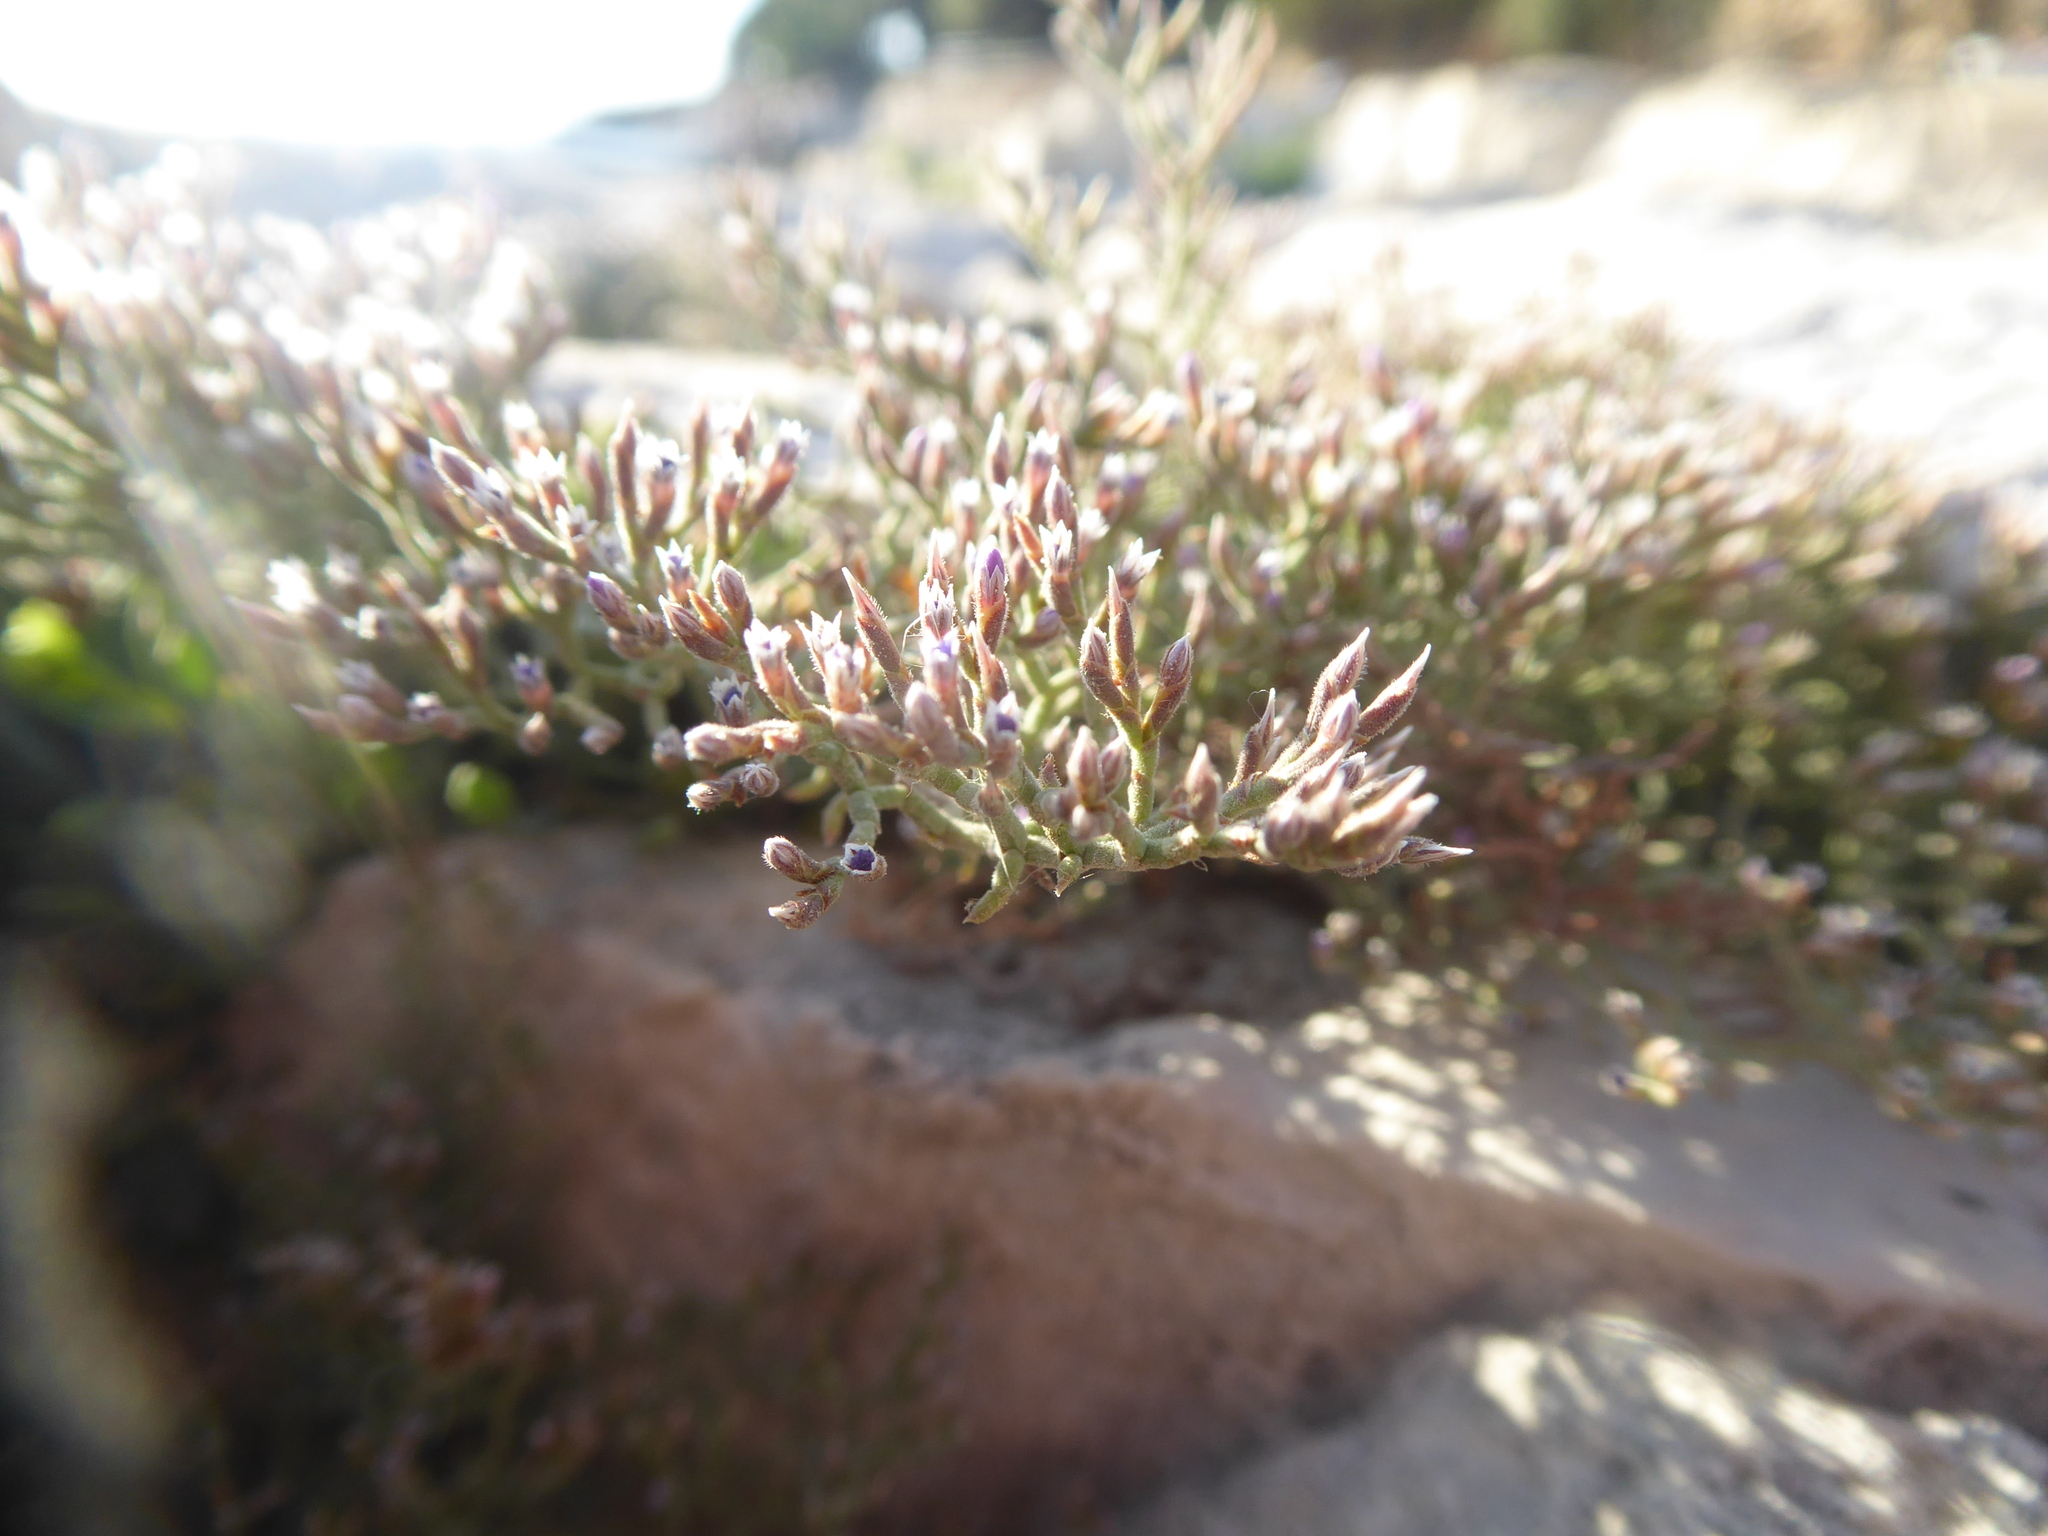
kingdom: Plantae
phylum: Tracheophyta
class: Magnoliopsida
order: Caryophyllales
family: Plumbaginaceae
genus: Limonium
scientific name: Limonium cancellatum
